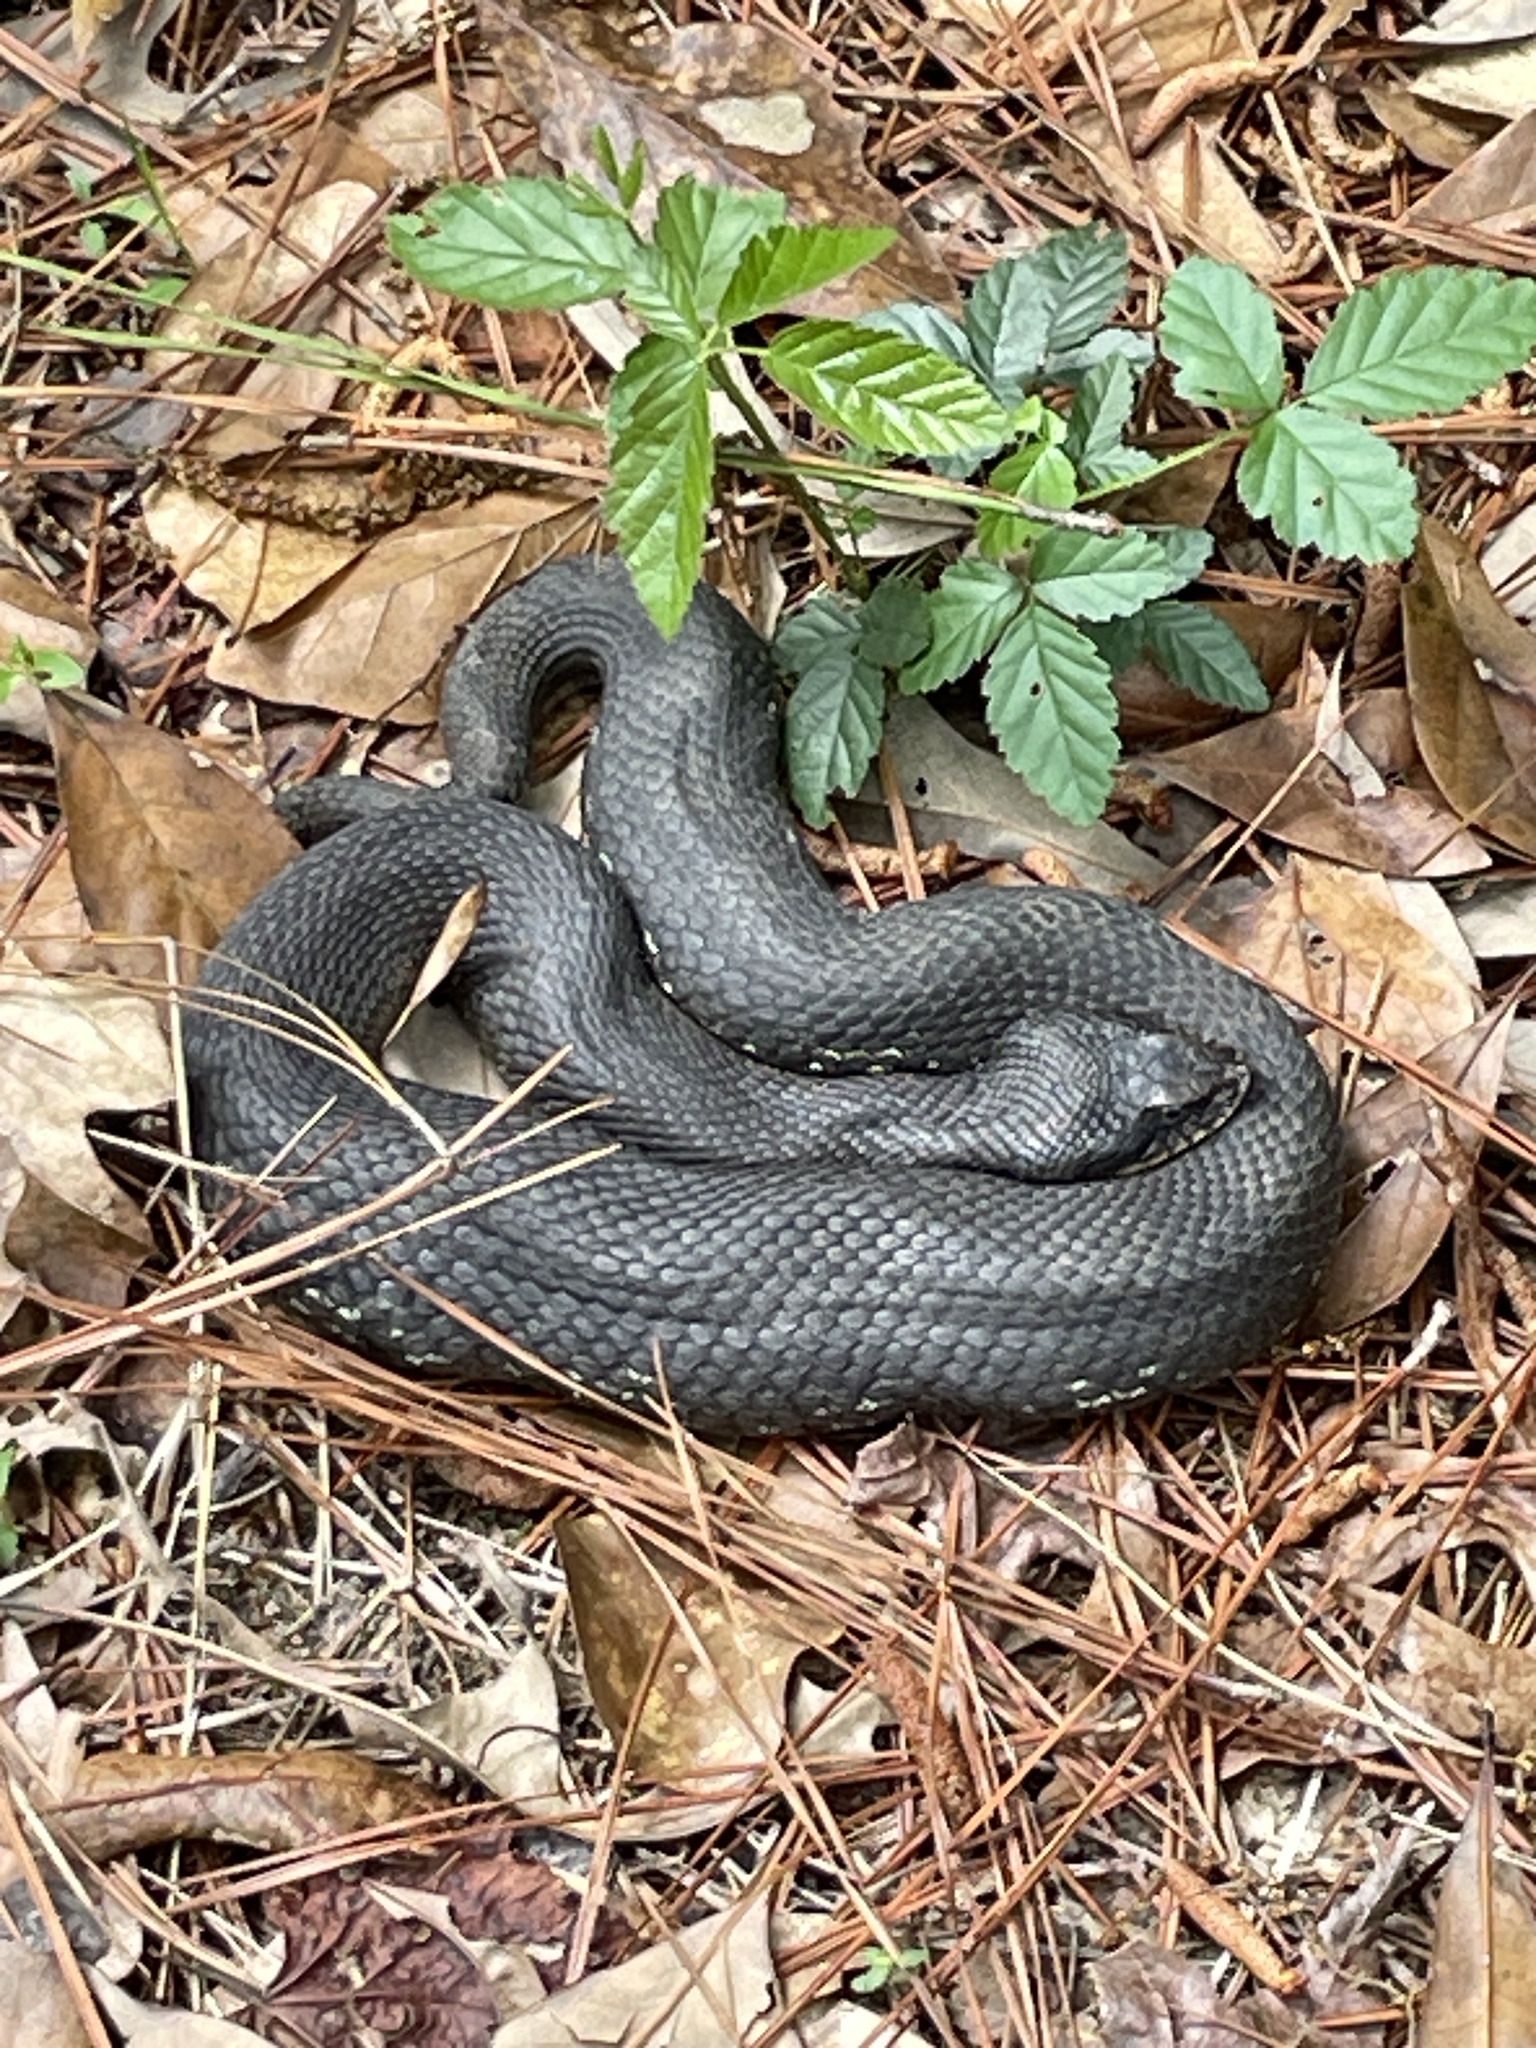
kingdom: Animalia
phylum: Chordata
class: Squamata
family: Colubridae
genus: Heterodon
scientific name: Heterodon platirhinos
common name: Eastern hognose snake
